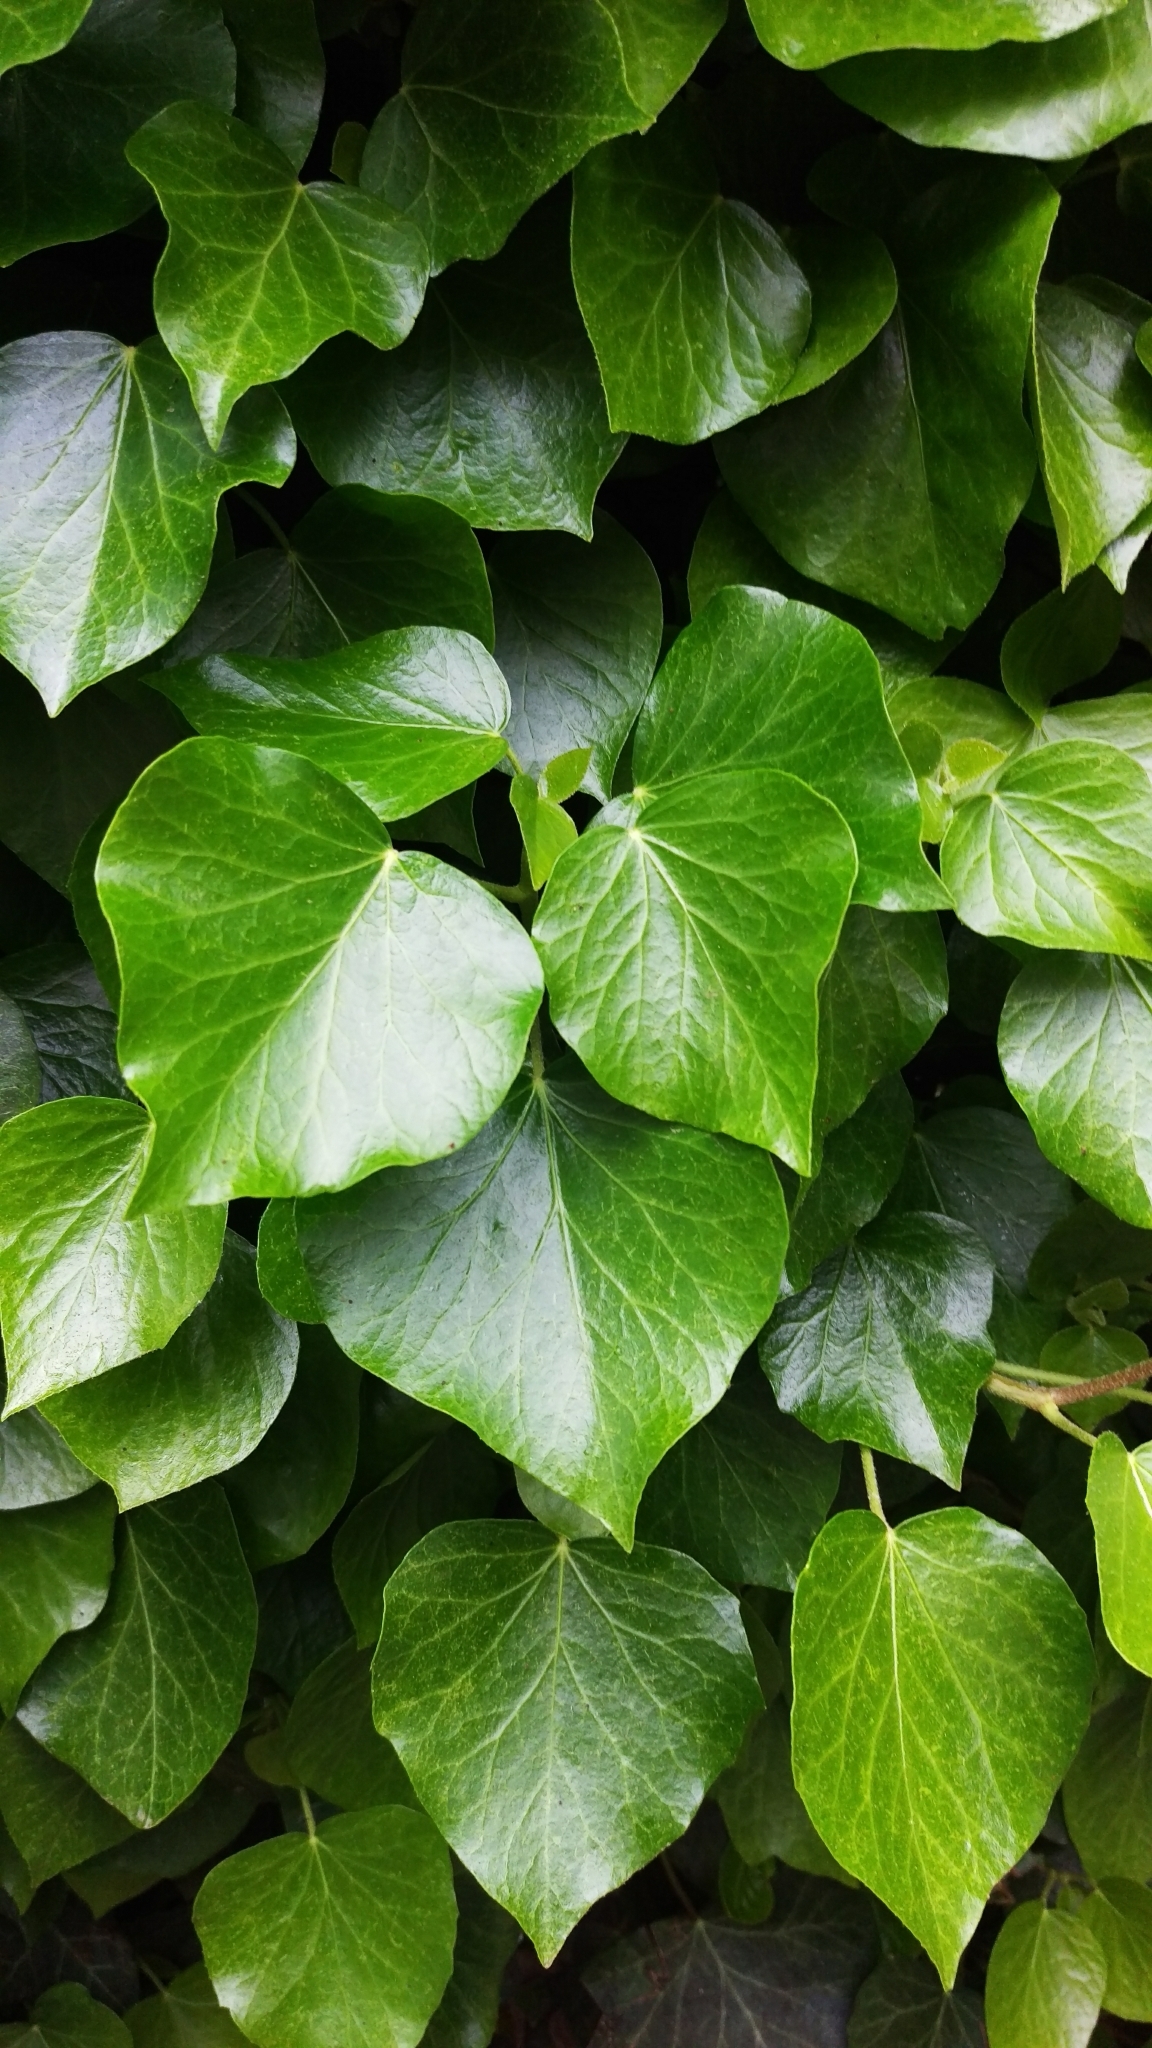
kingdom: Plantae
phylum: Tracheophyta
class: Magnoliopsida
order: Apiales
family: Araliaceae
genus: Hedera
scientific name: Hedera helix
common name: Ivy
